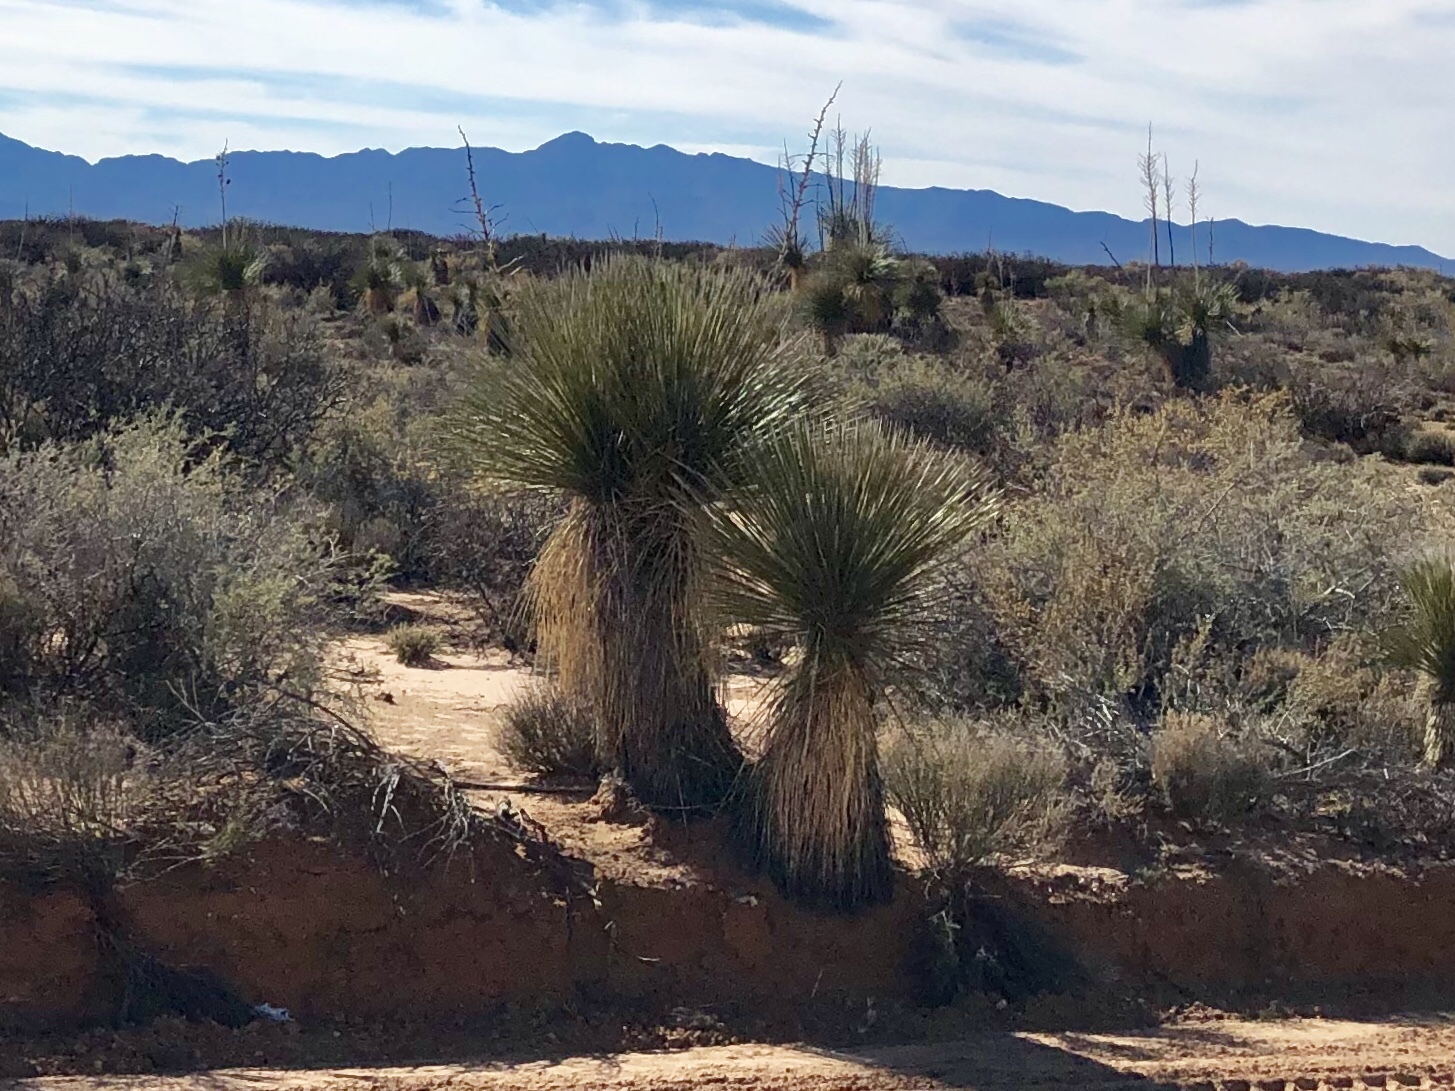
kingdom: Plantae
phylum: Tracheophyta
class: Liliopsida
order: Asparagales
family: Asparagaceae
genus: Yucca
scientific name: Yucca elata
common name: Palmella
